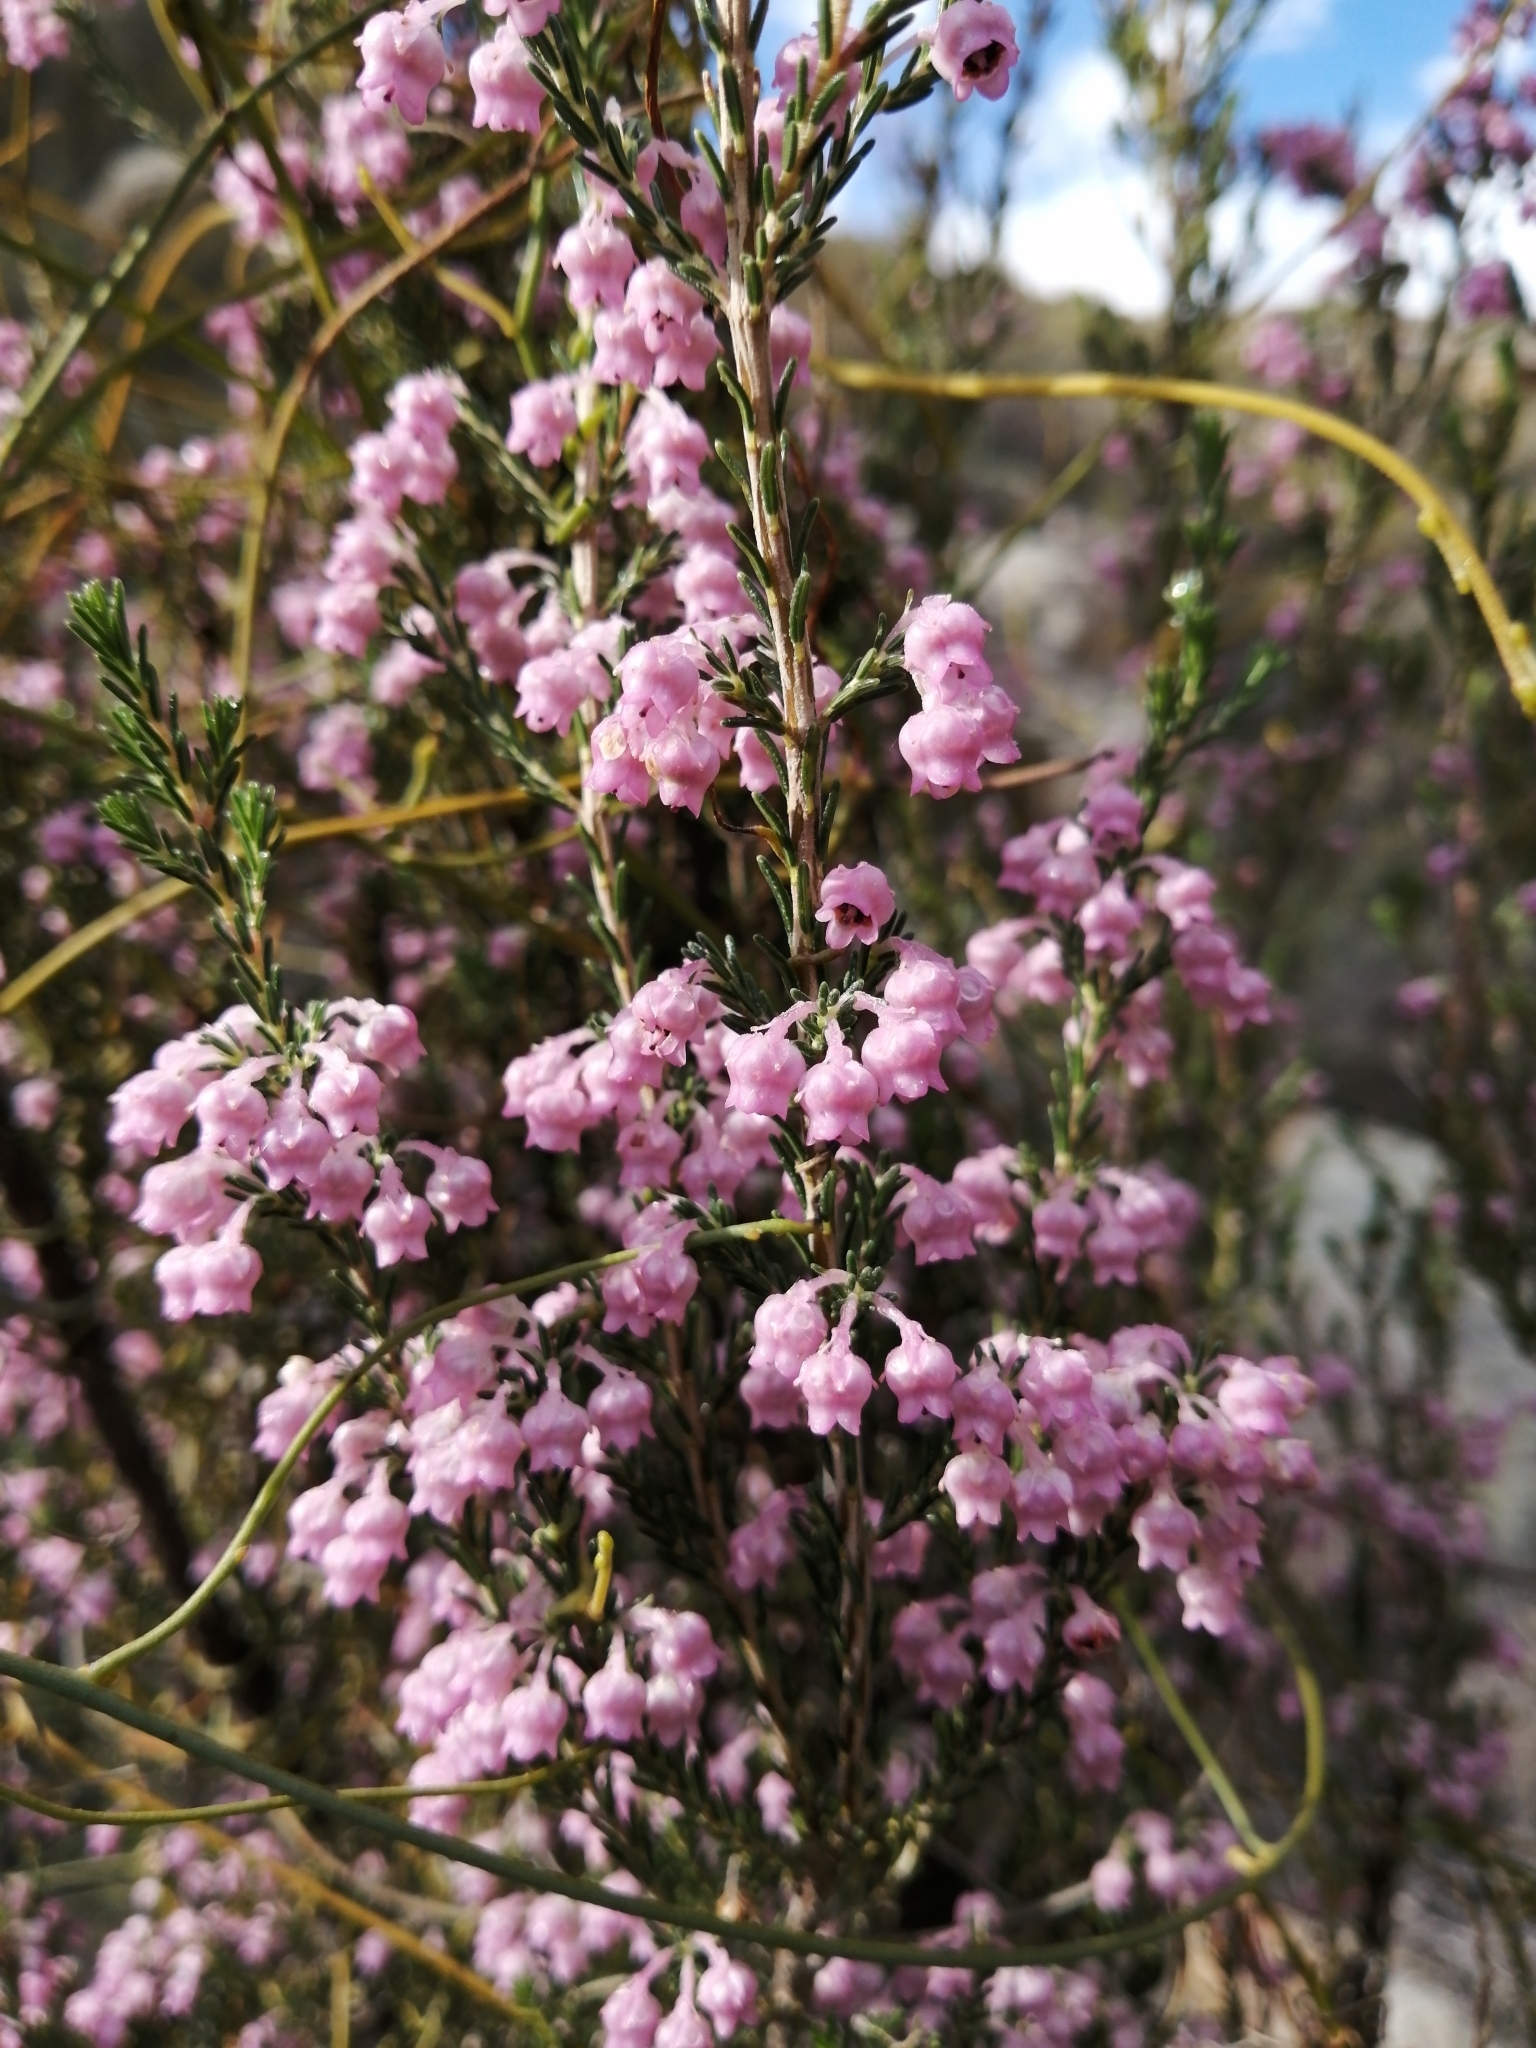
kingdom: Plantae
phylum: Tracheophyta
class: Magnoliopsida
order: Ericales
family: Ericaceae
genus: Erica
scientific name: Erica selaginifolia
